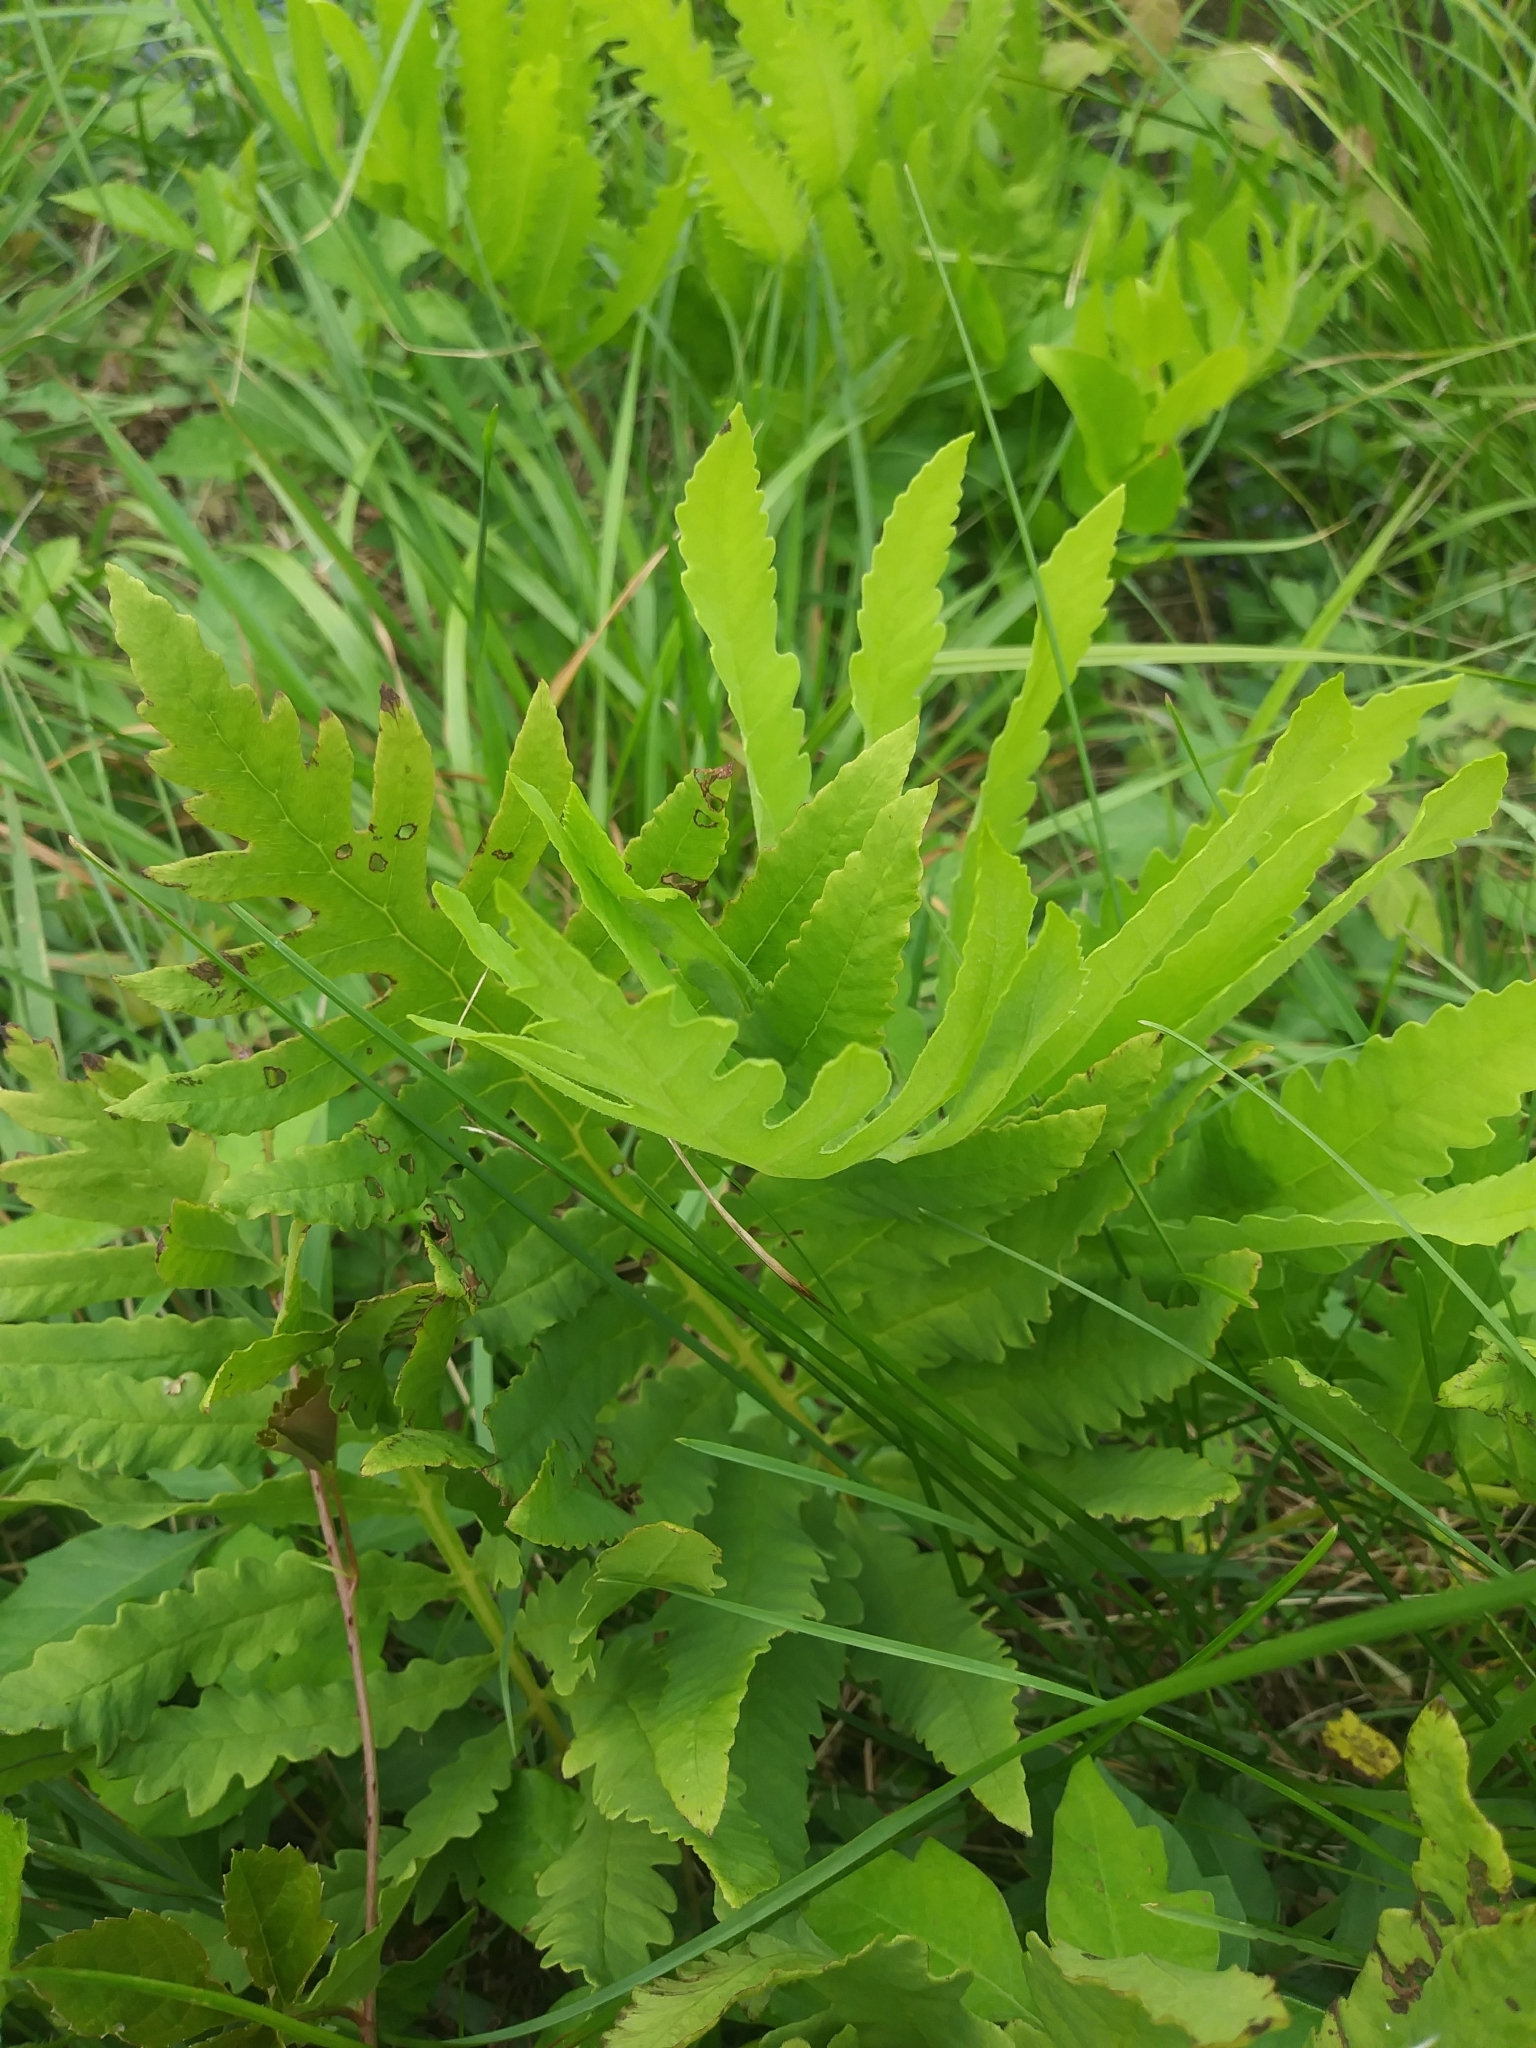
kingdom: Plantae
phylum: Tracheophyta
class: Polypodiopsida
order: Polypodiales
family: Onocleaceae
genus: Onoclea
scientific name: Onoclea sensibilis
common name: Sensitive fern
